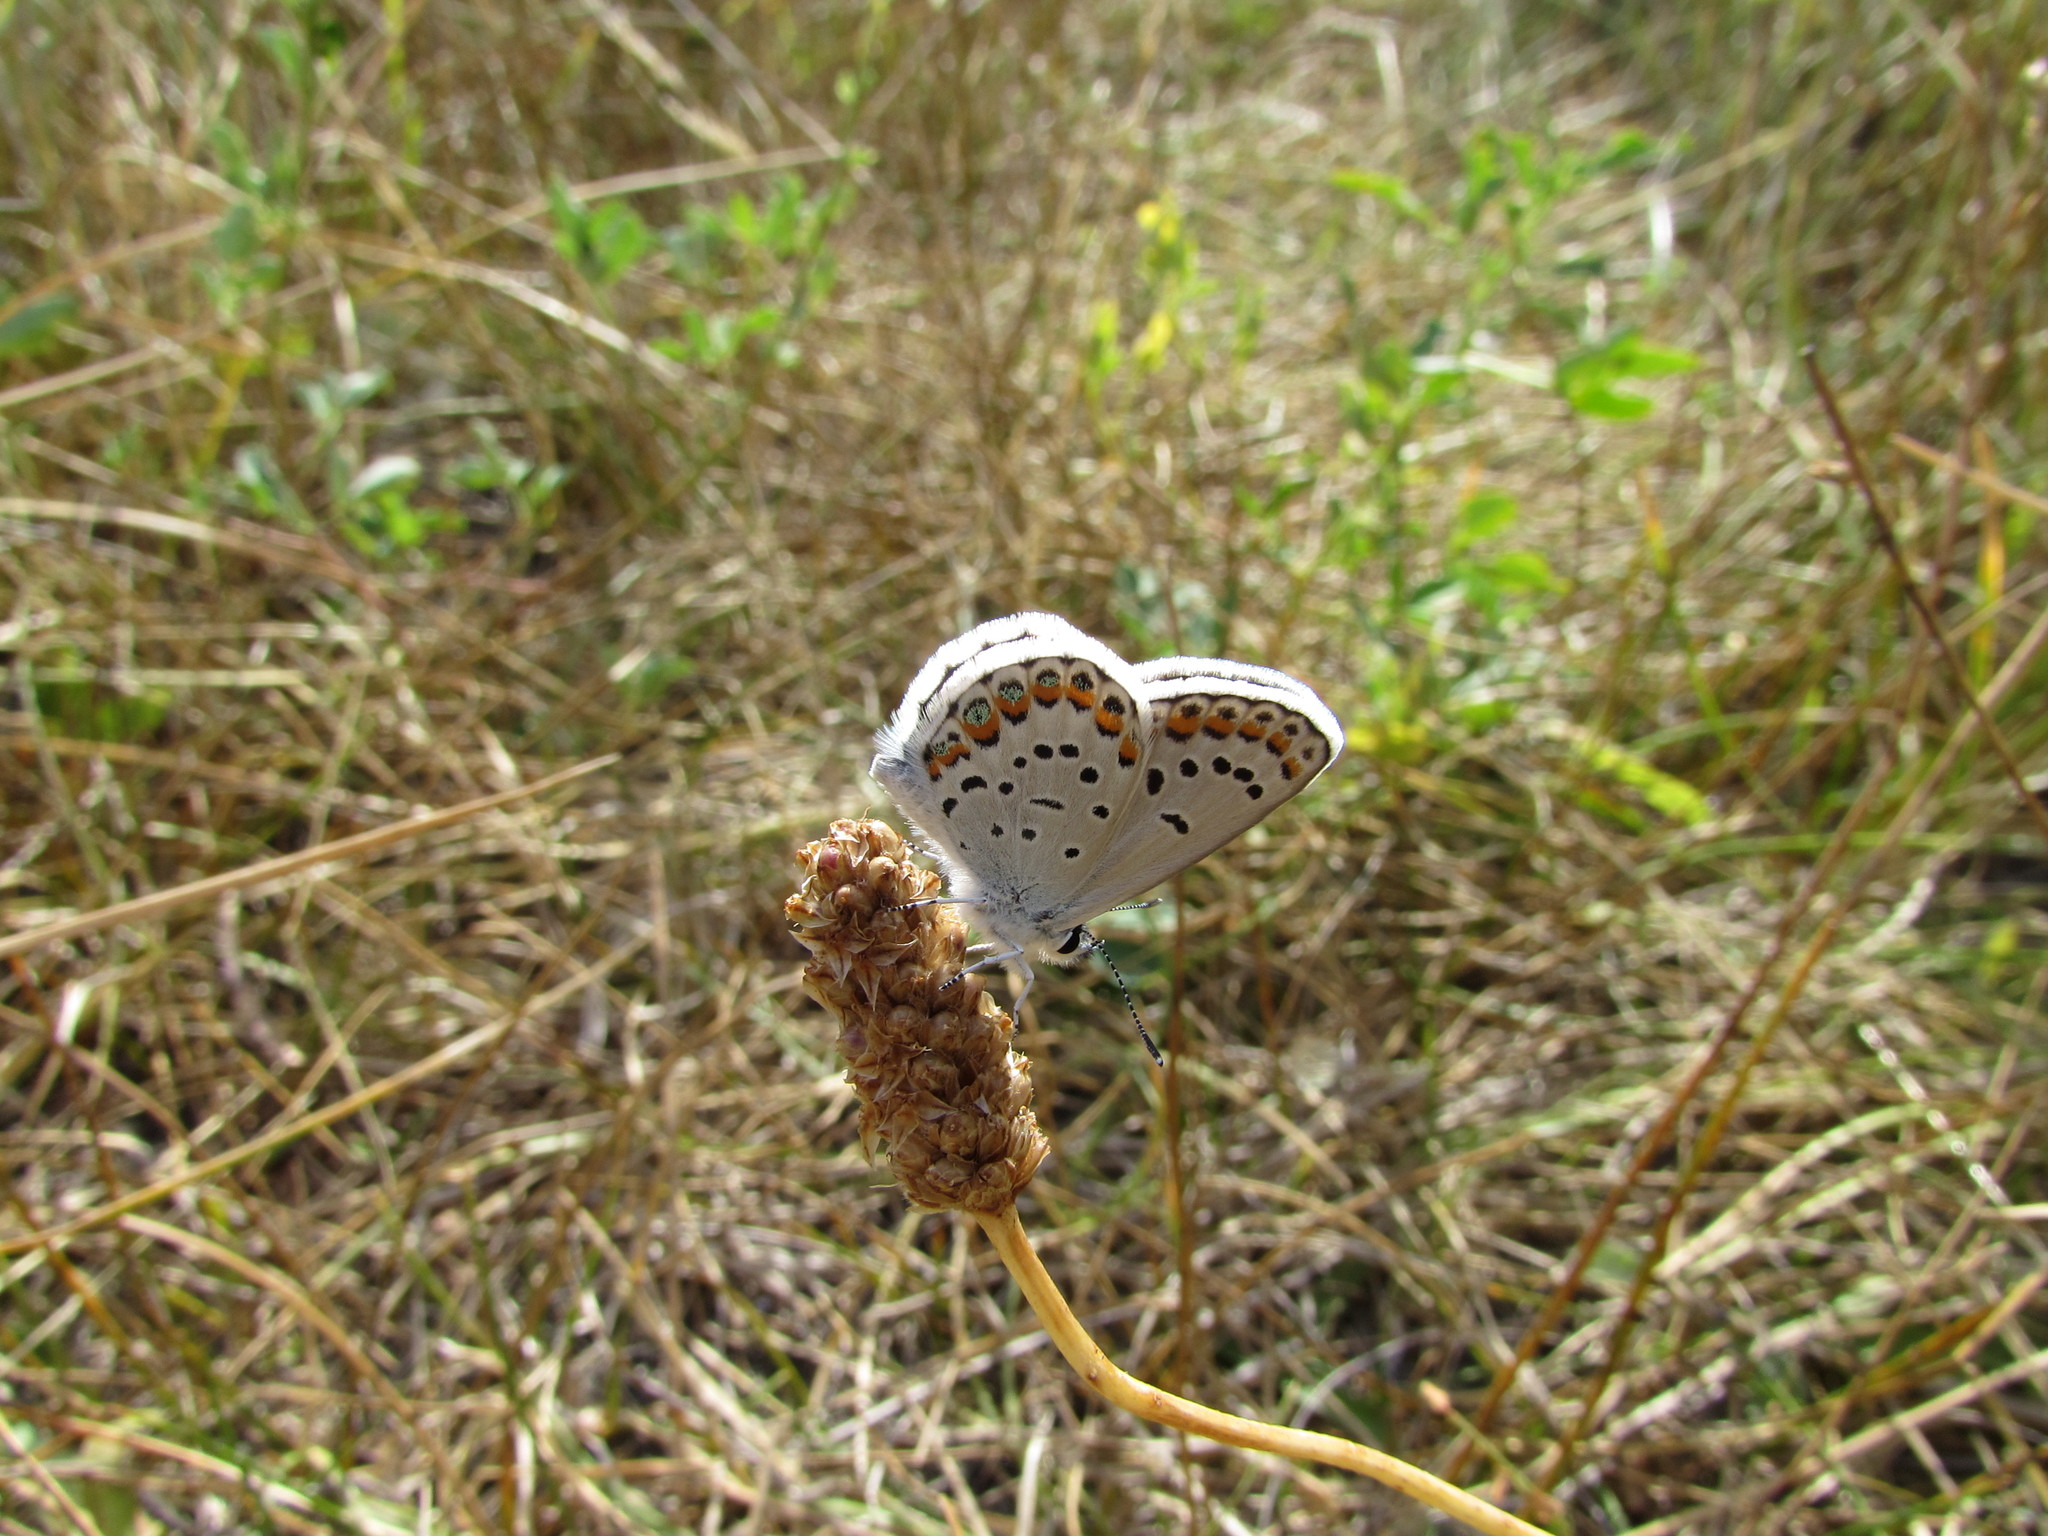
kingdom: Animalia
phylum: Arthropoda
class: Insecta
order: Lepidoptera
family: Lycaenidae
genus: Lycaeides
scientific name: Lycaeides melissa
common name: Melissa blue
